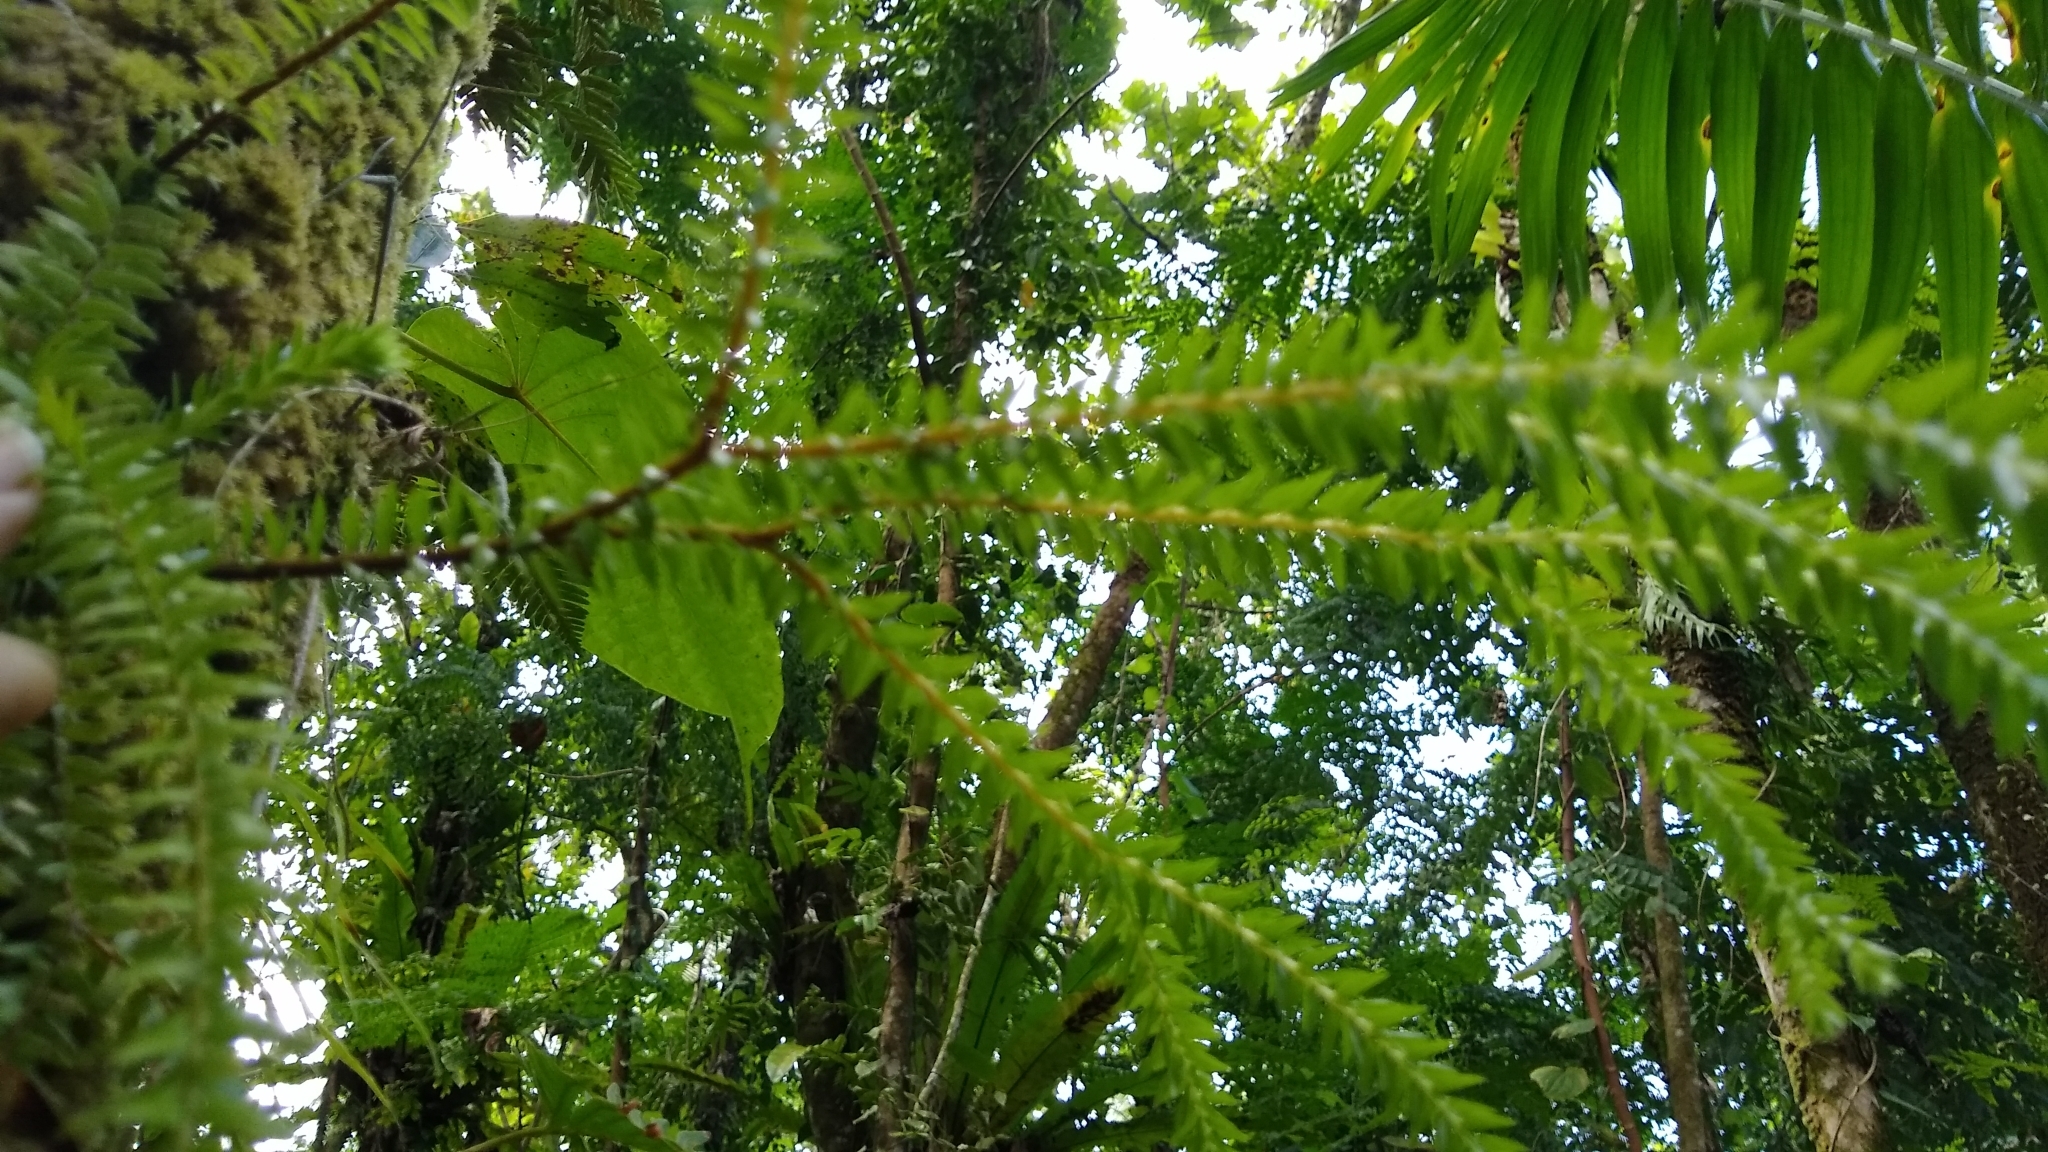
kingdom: Plantae
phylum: Tracheophyta
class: Lycopodiopsida
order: Lycopodiales
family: Lycopodiaceae
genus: Phlegmariurus
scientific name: Phlegmariurus phlegmaria
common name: Coarse tassel-fern
